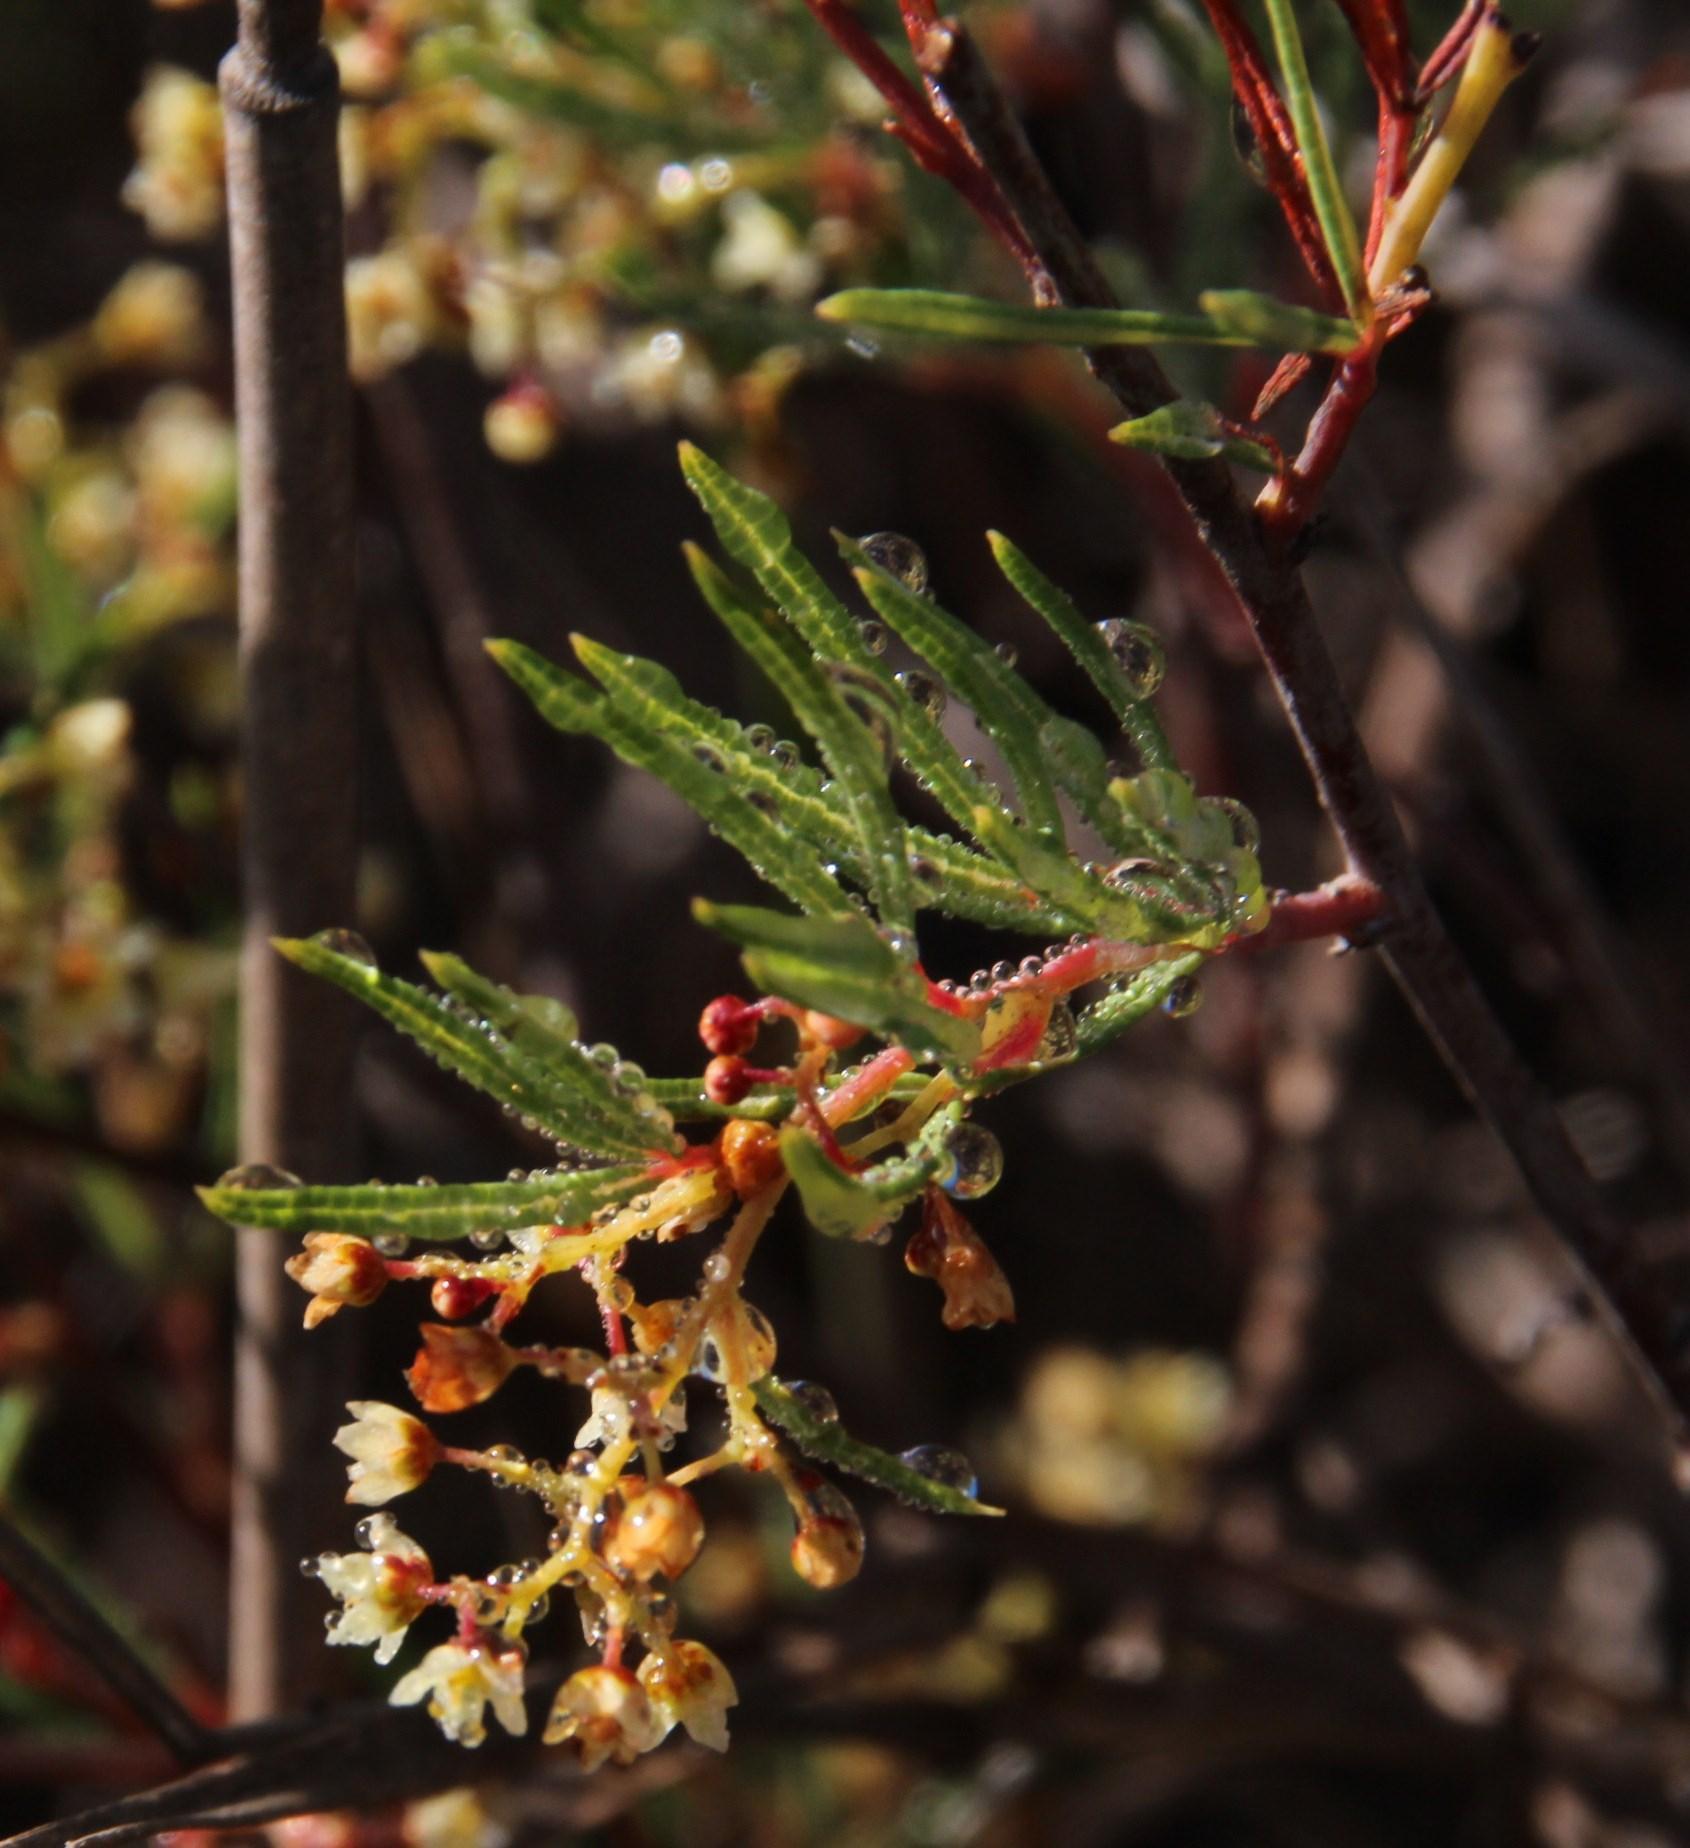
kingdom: Plantae
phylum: Tracheophyta
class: Magnoliopsida
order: Sapindales
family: Anacardiaceae
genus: Searsia
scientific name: Searsia rosmarinifolia
